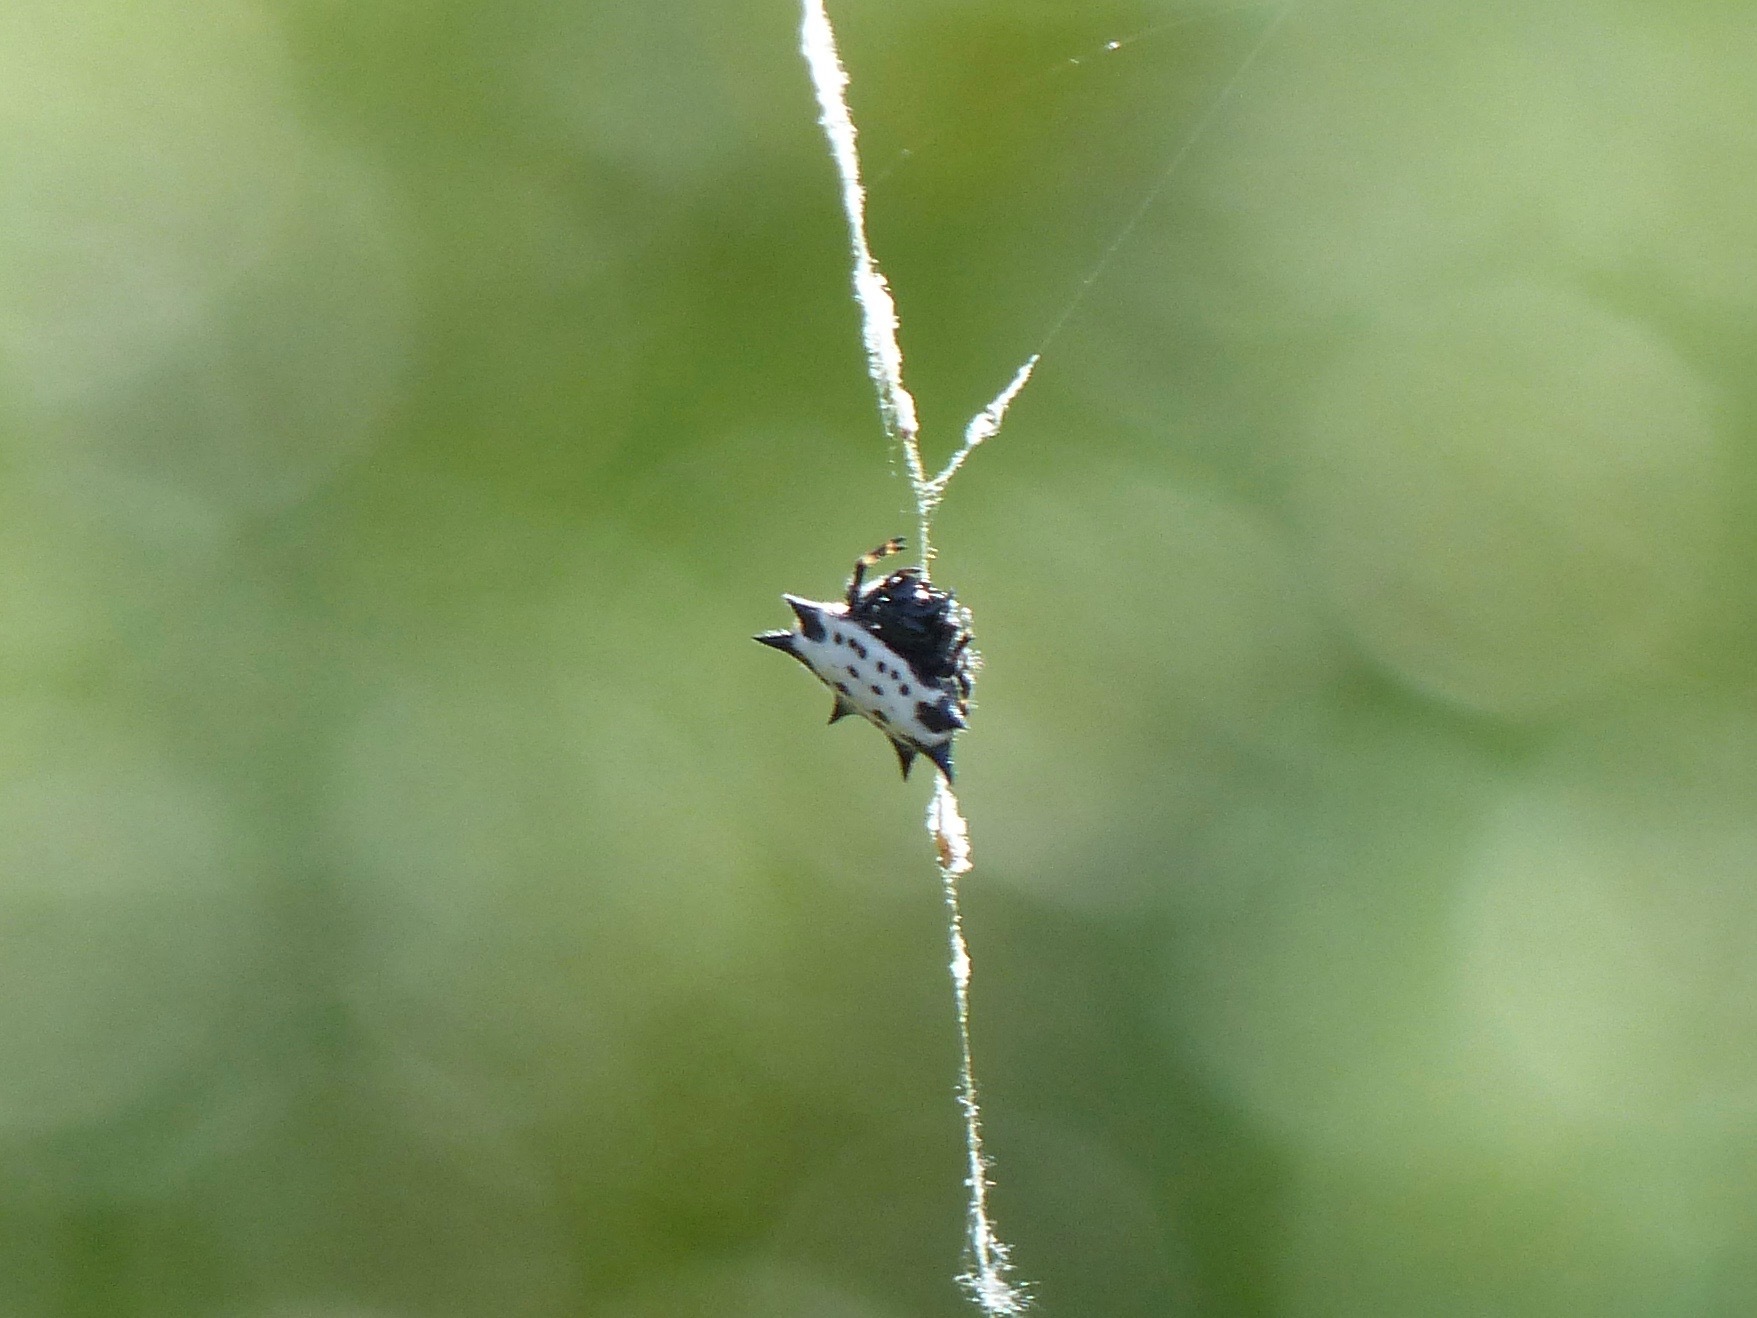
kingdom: Animalia
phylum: Arthropoda
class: Arachnida
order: Araneae
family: Araneidae
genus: Gasteracantha
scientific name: Gasteracantha cancriformis
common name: Orb weavers
